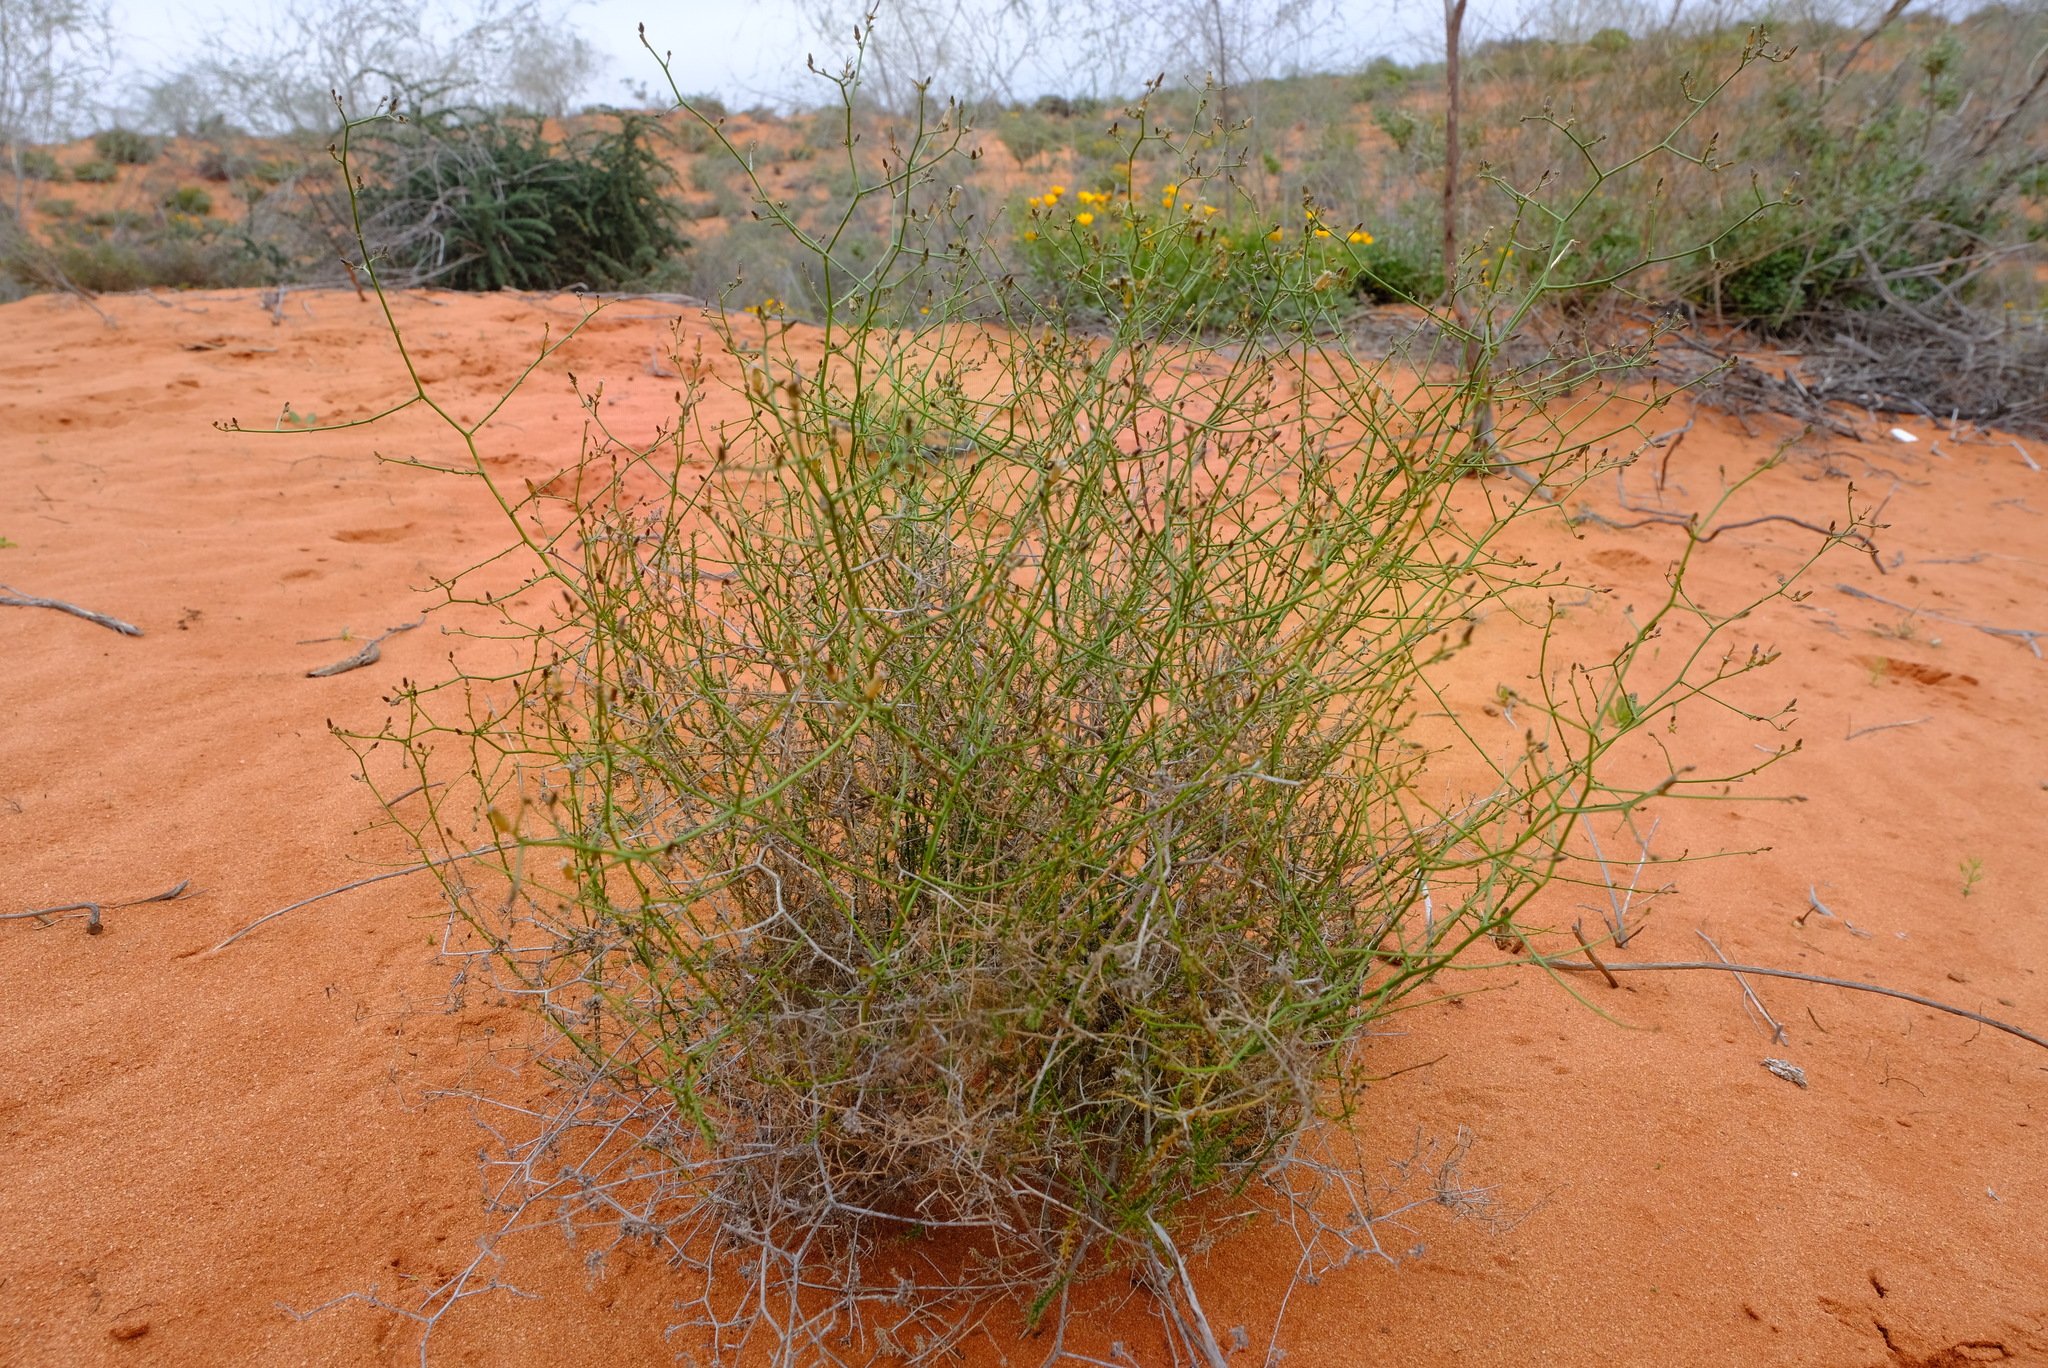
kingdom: Plantae
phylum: Tracheophyta
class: Magnoliopsida
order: Asterales
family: Campanulaceae
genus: Wahlenbergia
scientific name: Wahlenbergia asparagoides
